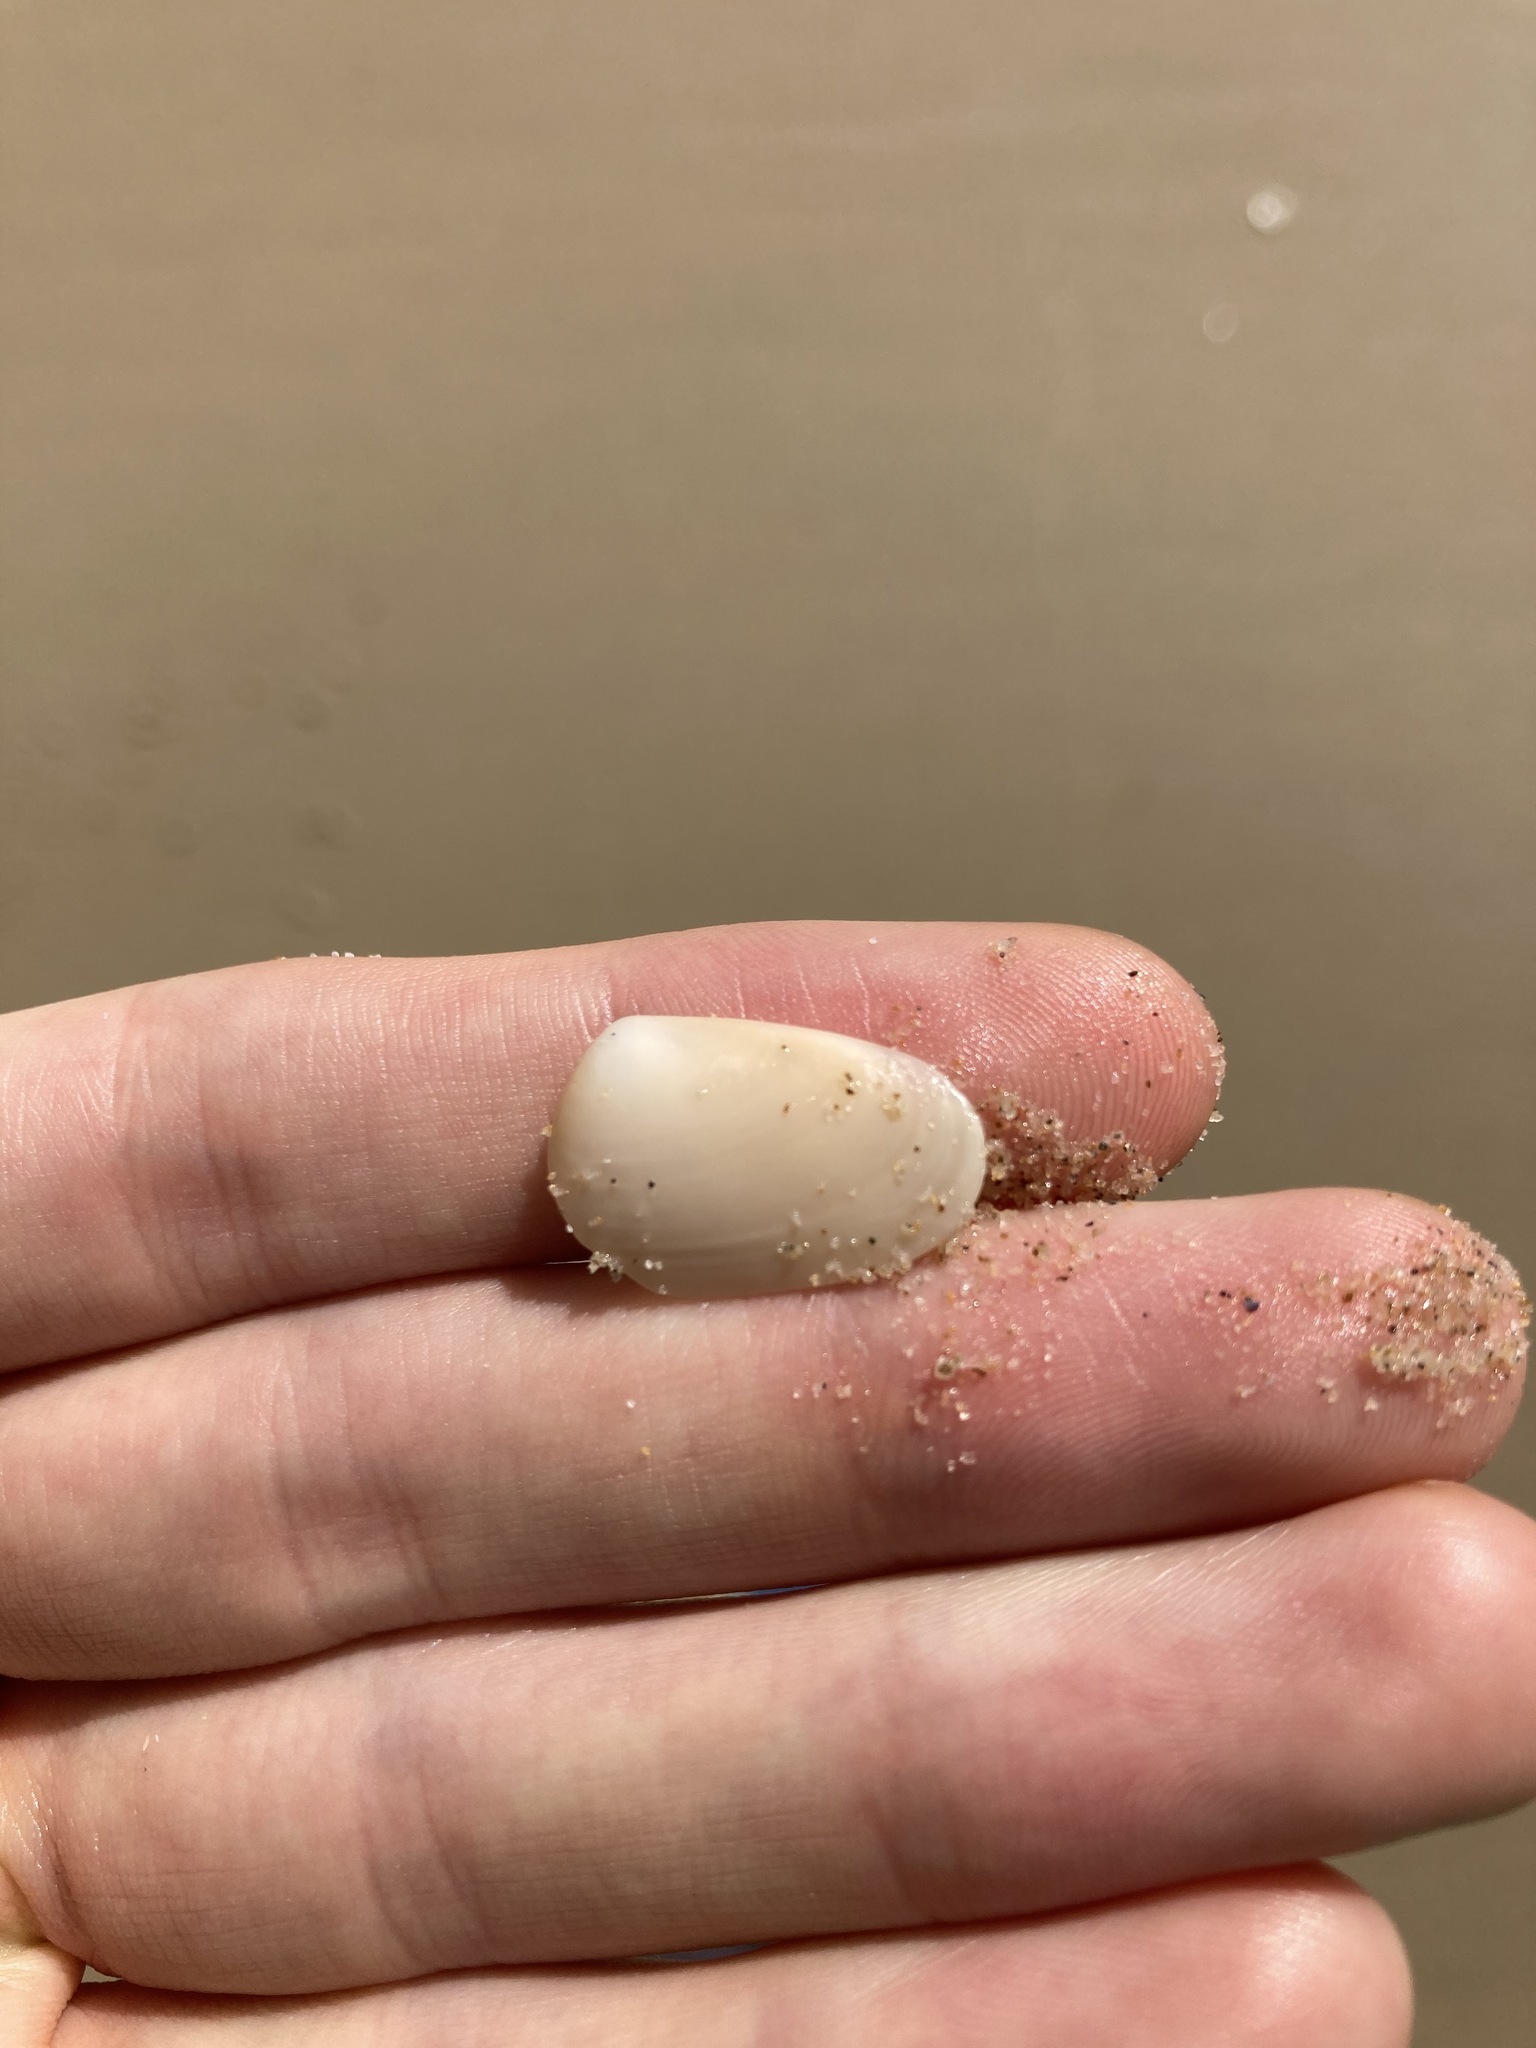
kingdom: Animalia
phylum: Mollusca
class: Bivalvia
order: Venerida
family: Mesodesmatidae
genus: Paphies
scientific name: Paphies angusta
